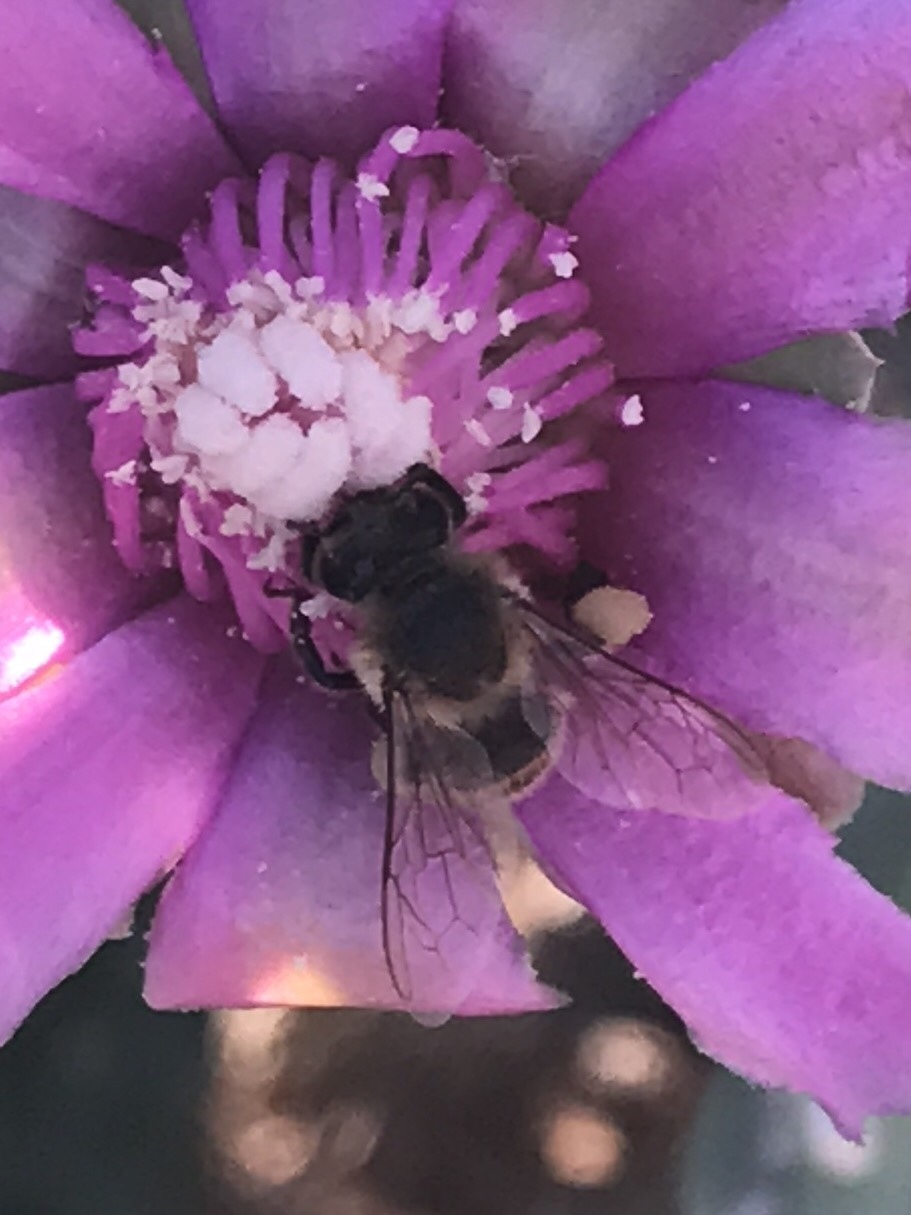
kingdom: Animalia
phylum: Arthropoda
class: Insecta
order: Hymenoptera
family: Apidae
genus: Apis
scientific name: Apis mellifera
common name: Honey bee
